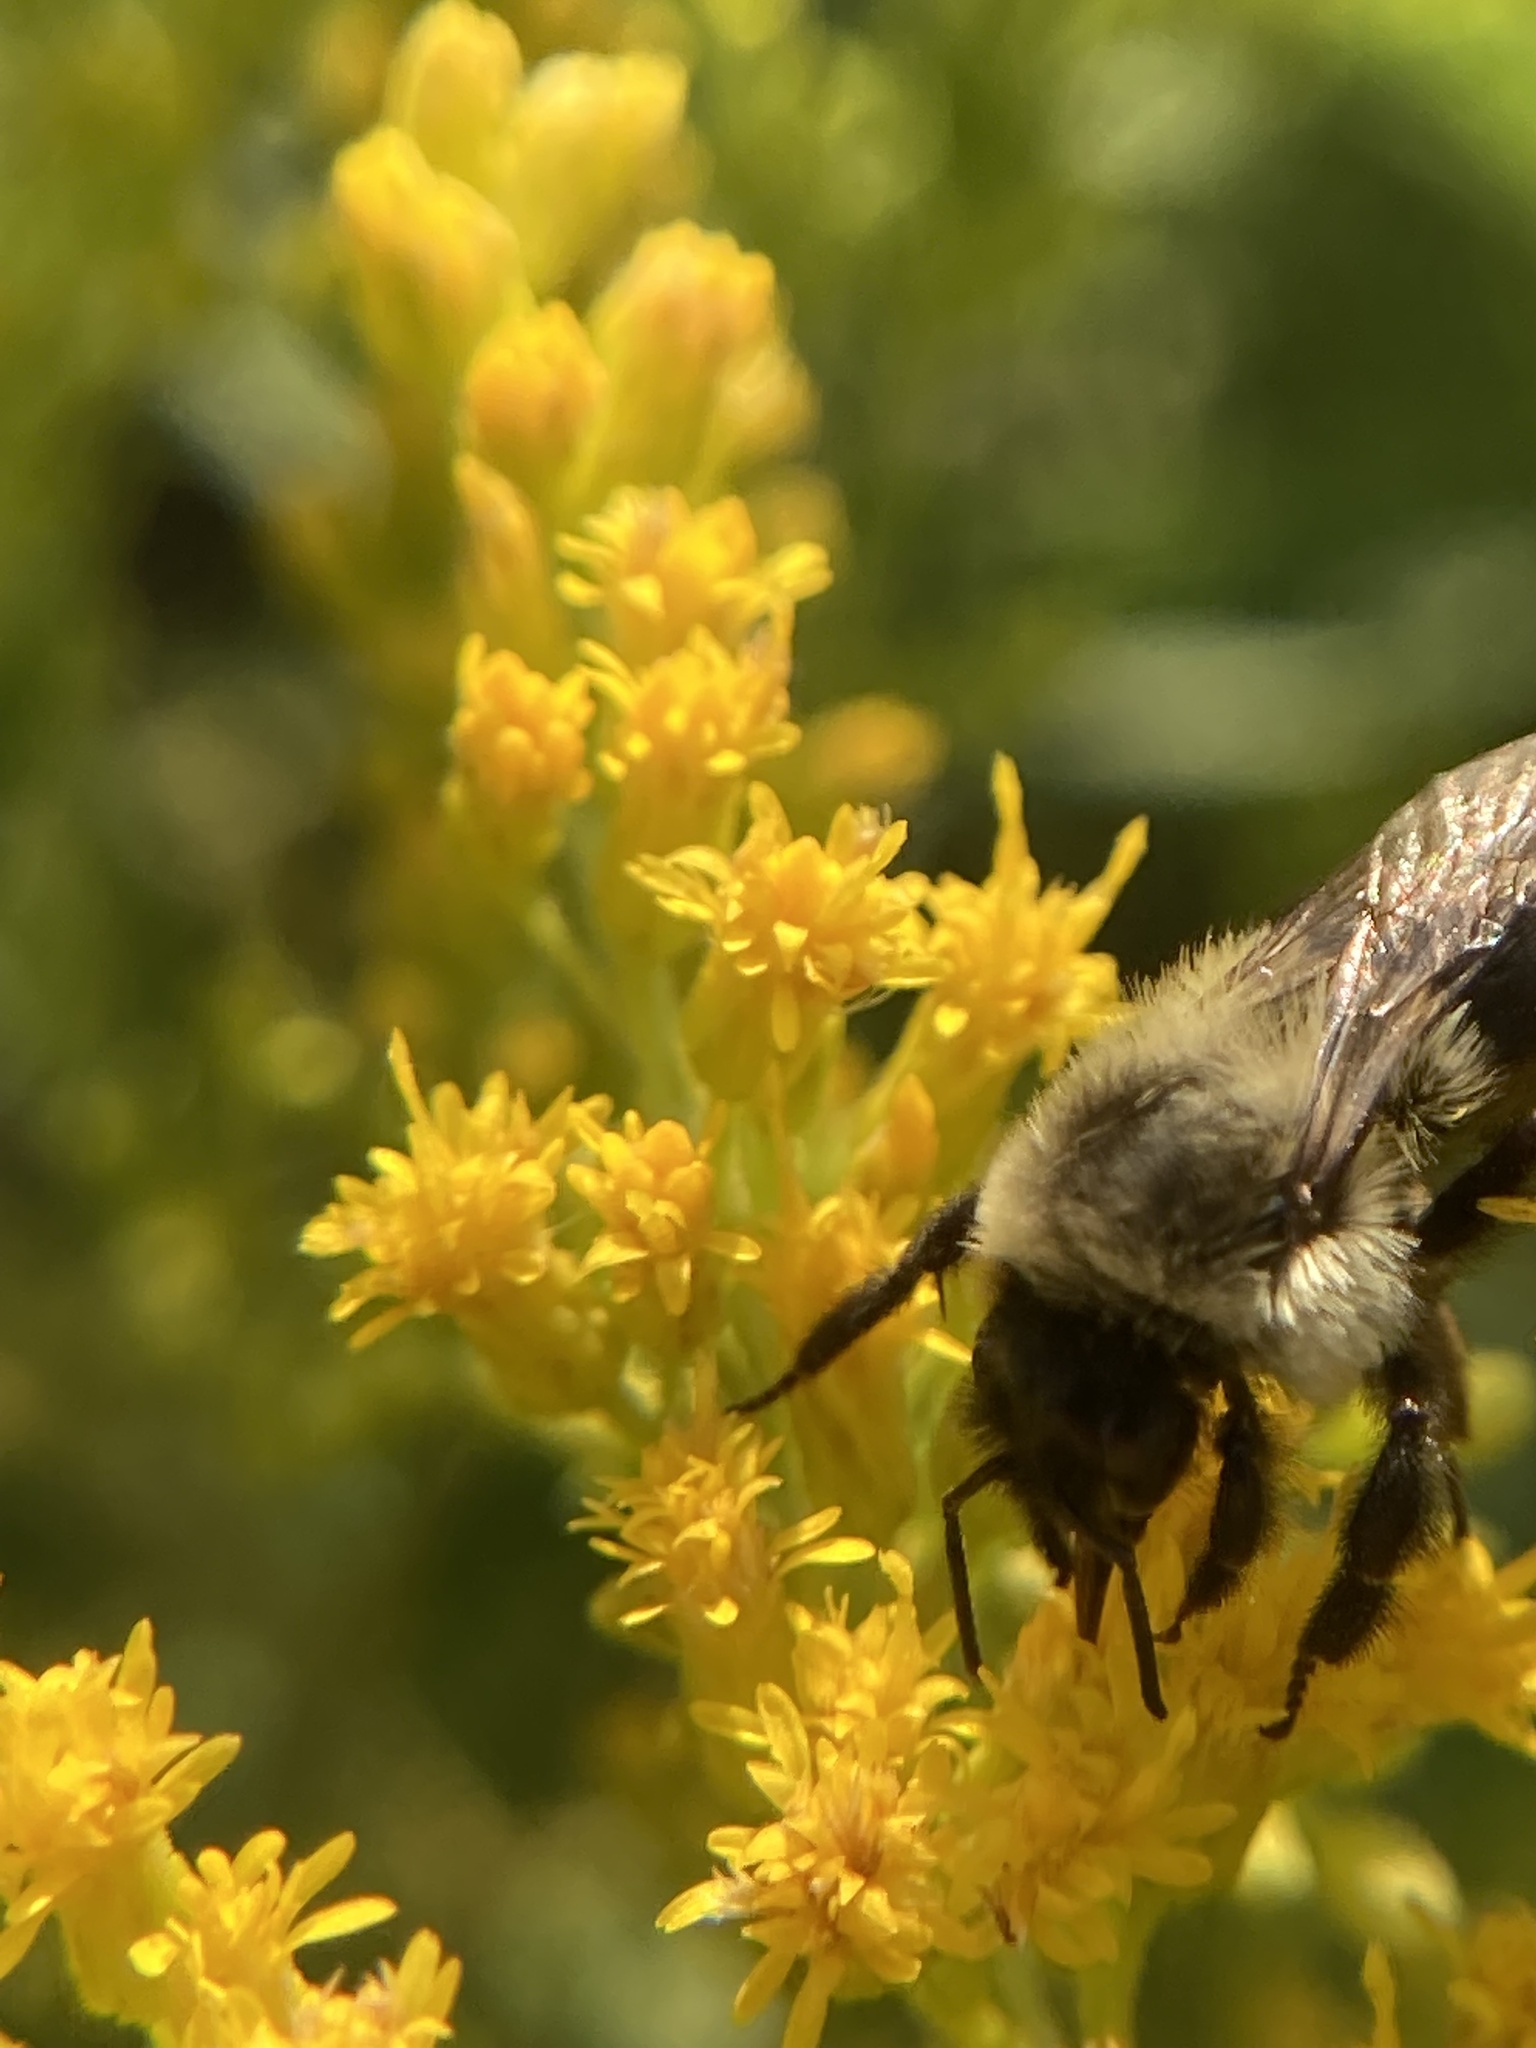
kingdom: Animalia
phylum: Arthropoda
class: Insecta
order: Hymenoptera
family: Apidae
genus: Bombus
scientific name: Bombus impatiens
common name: Common eastern bumble bee
